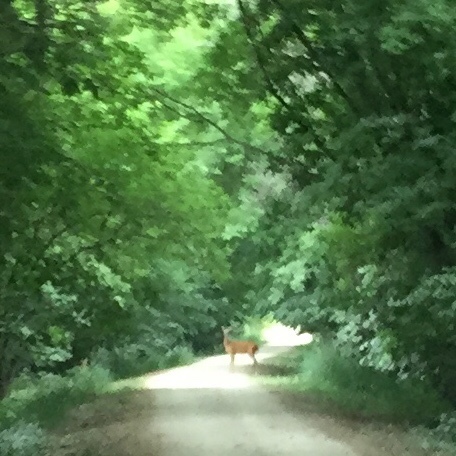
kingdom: Animalia
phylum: Chordata
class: Mammalia
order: Artiodactyla
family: Cervidae
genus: Odocoileus
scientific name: Odocoileus virginianus
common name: White-tailed deer
